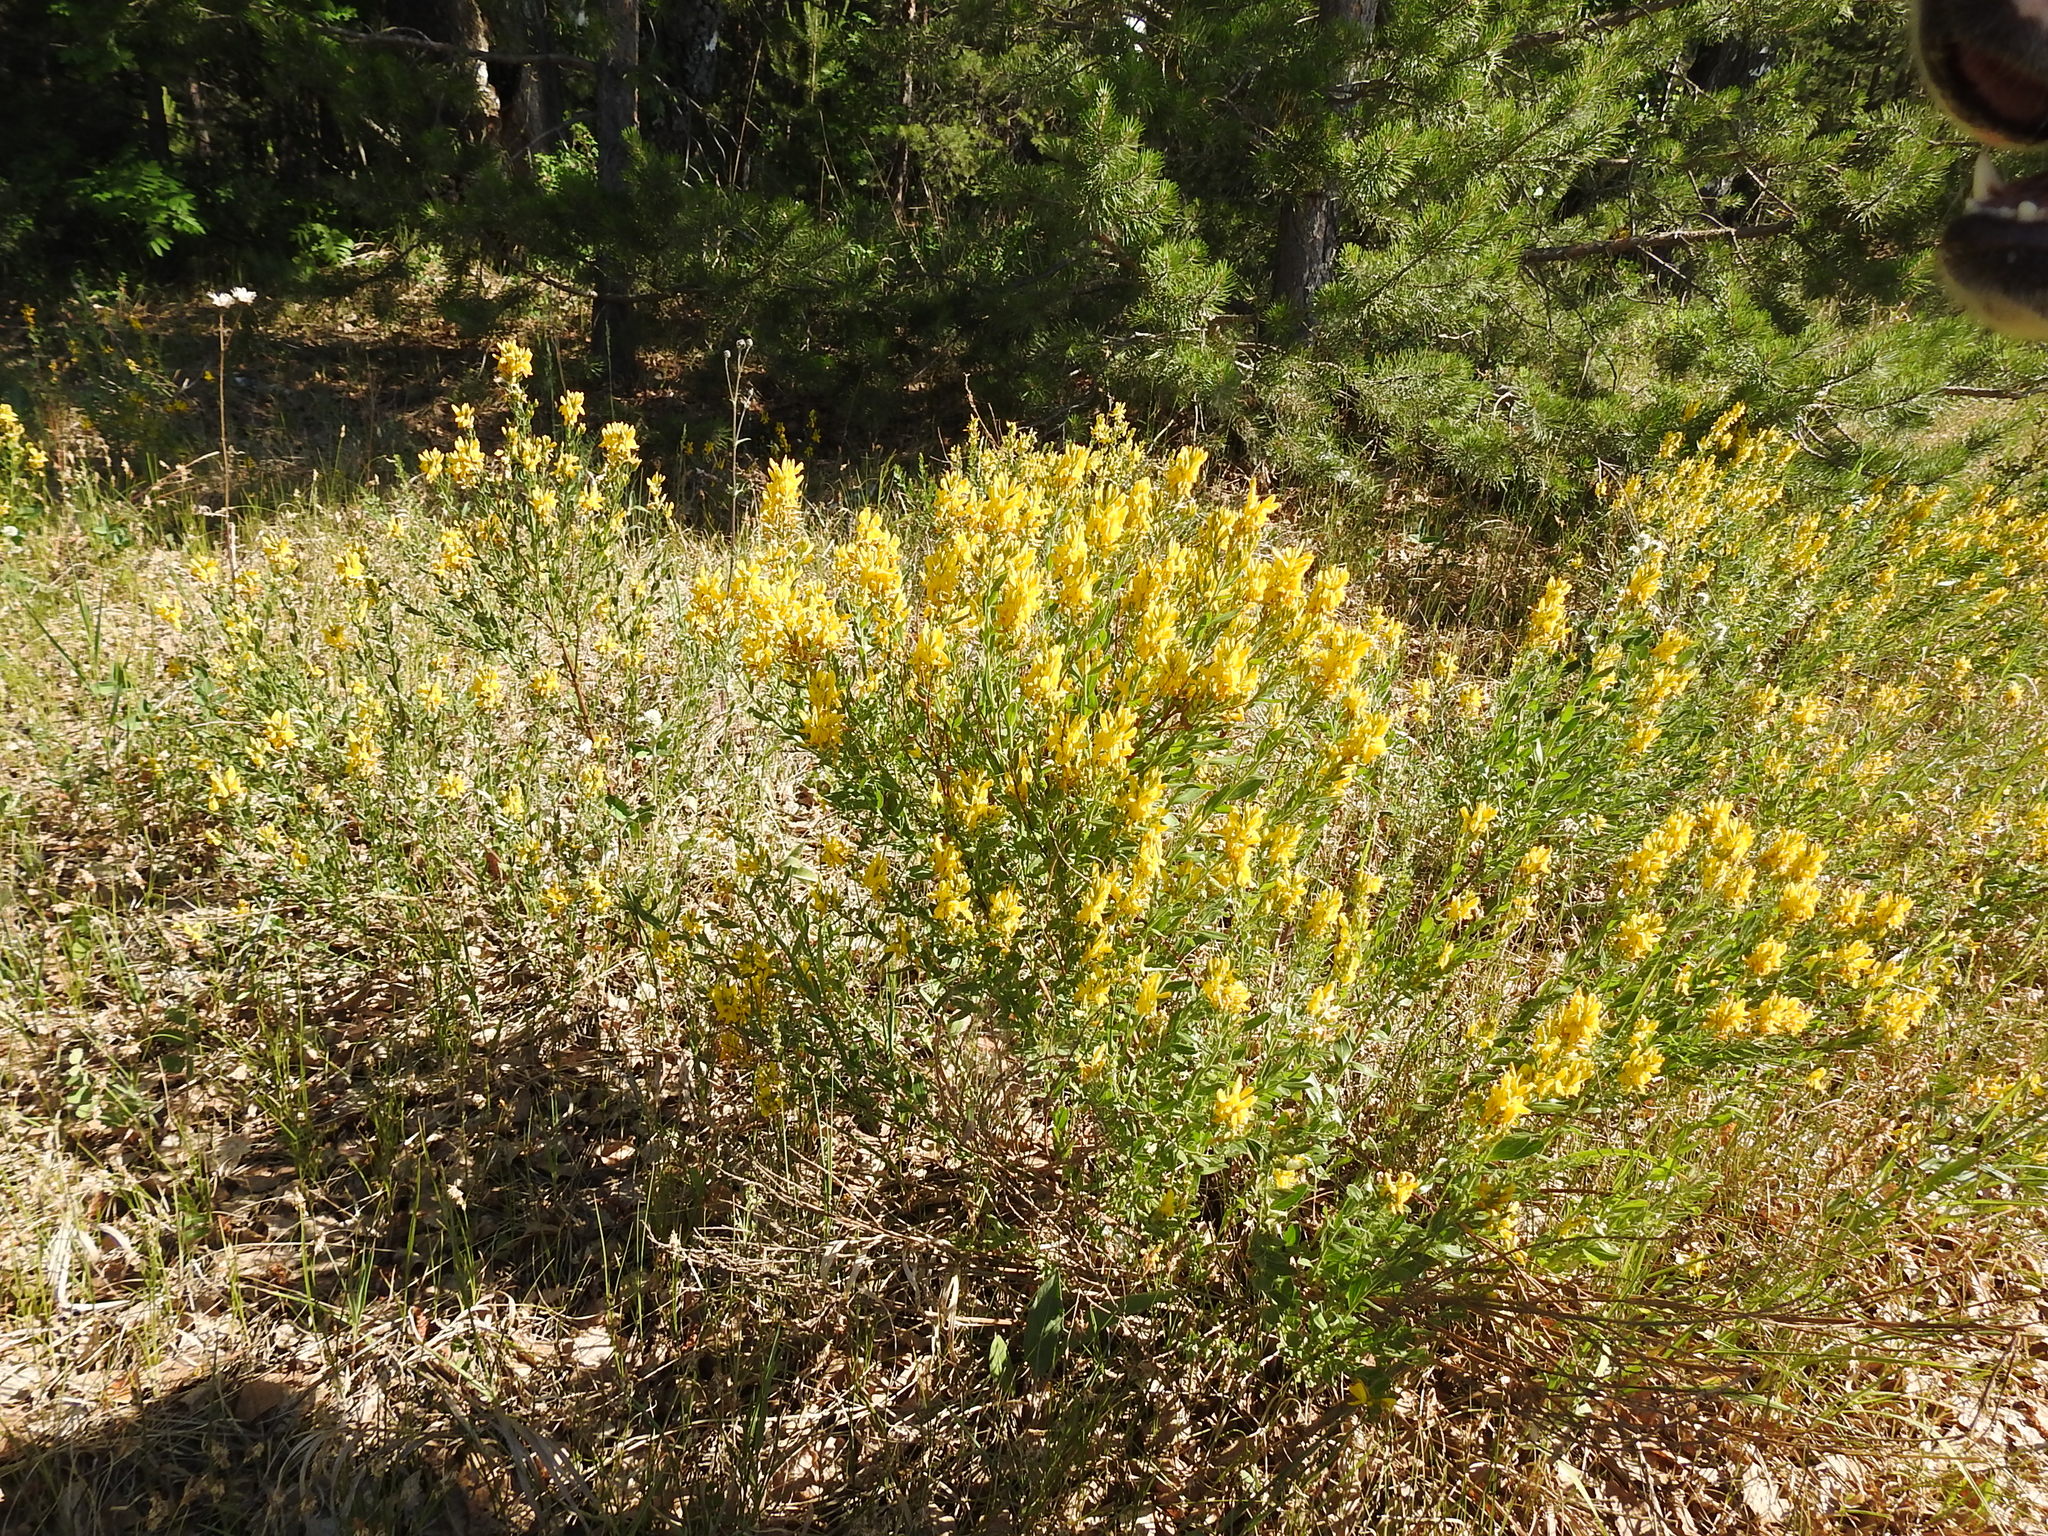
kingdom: Plantae
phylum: Tracheophyta
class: Magnoliopsida
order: Fabales
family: Fabaceae
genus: Genista
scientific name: Genista tinctoria
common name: Dyer's greenweed
